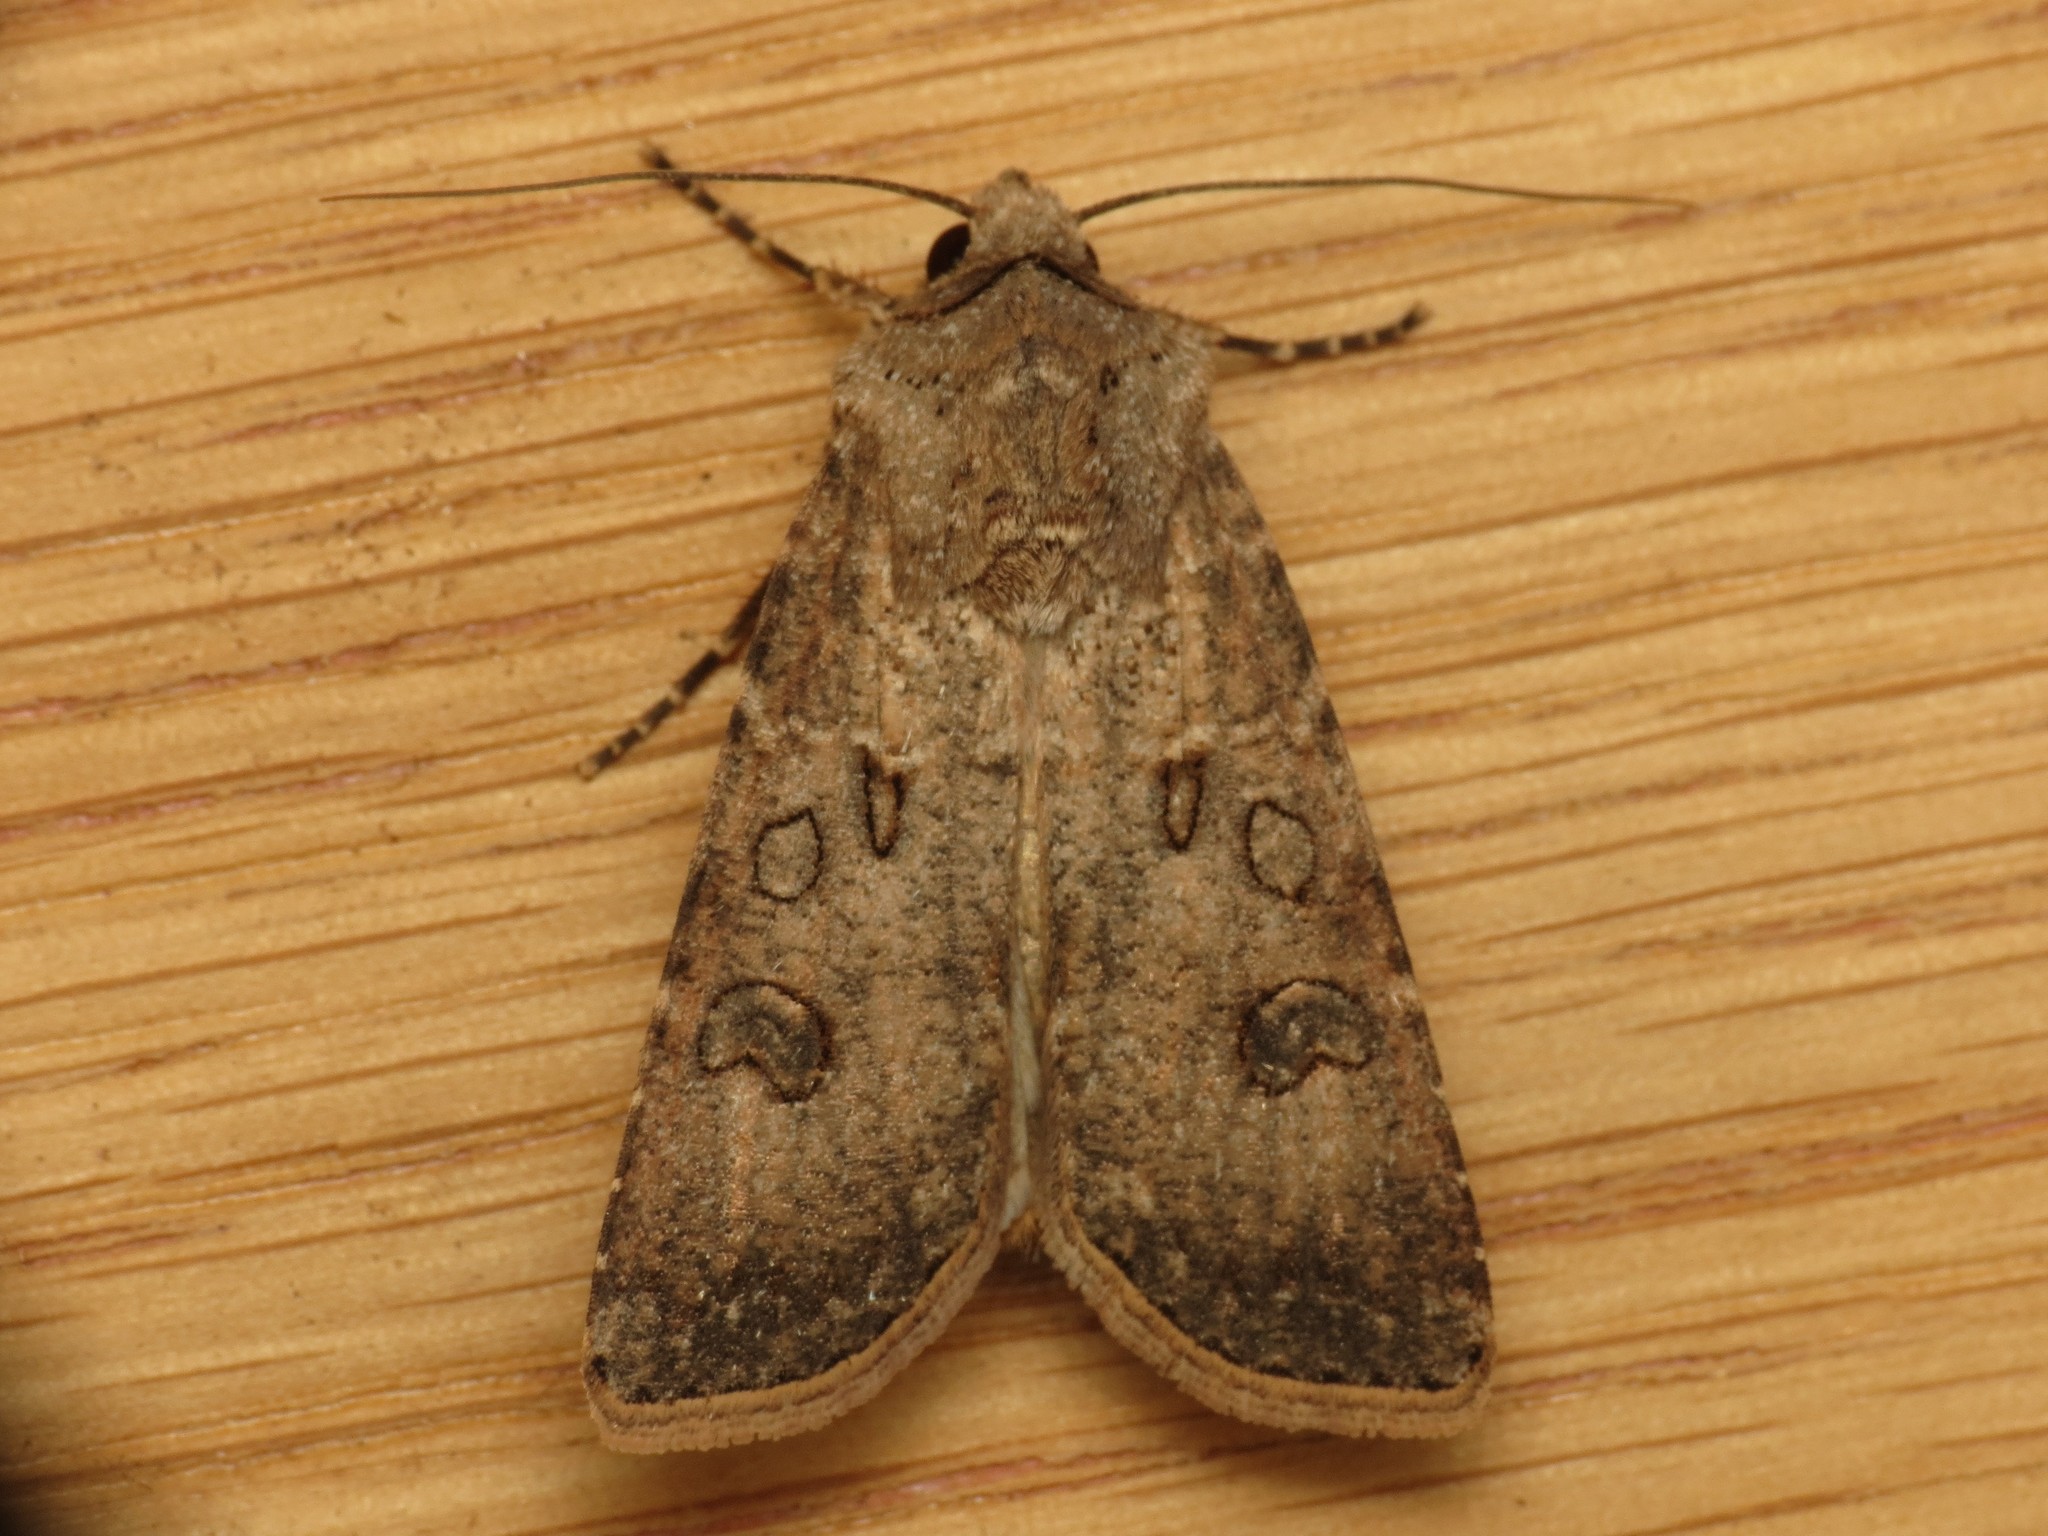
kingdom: Animalia
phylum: Arthropoda
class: Insecta
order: Lepidoptera
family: Noctuidae
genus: Agrotis
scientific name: Agrotis segetum
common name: Turnip moth
